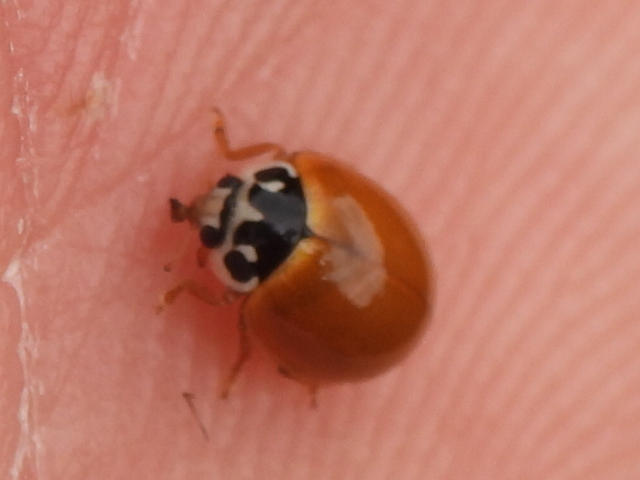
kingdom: Animalia
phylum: Arthropoda
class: Insecta
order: Coleoptera
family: Coccinellidae
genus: Cycloneda
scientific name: Cycloneda munda
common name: Polished lady beetle
